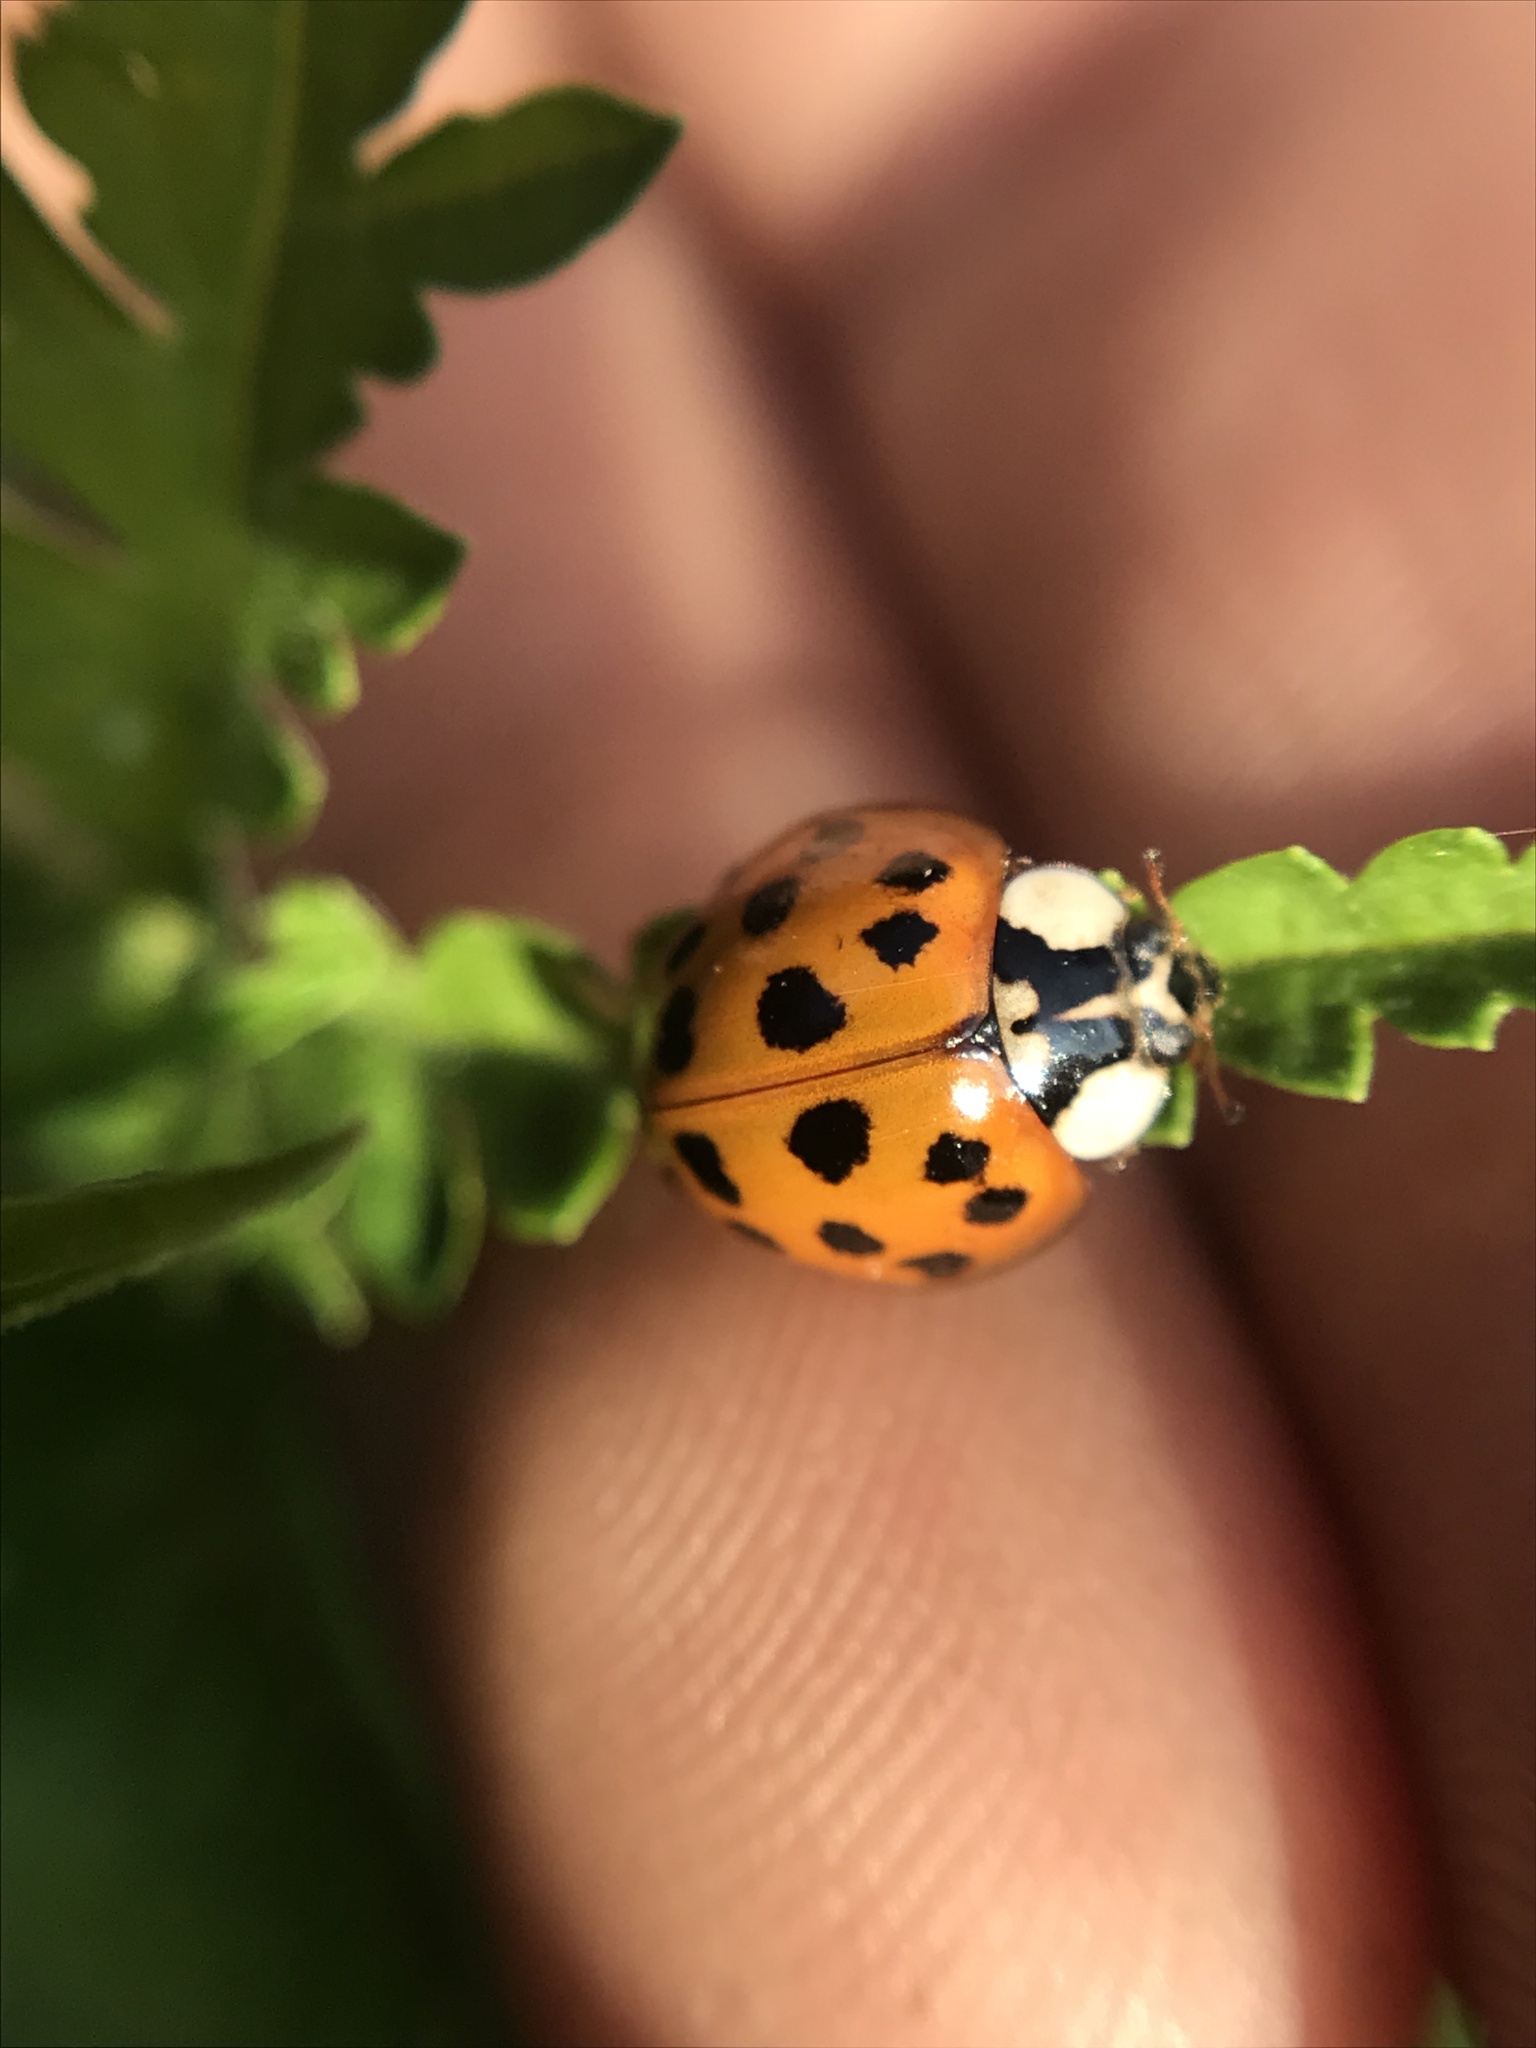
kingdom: Animalia
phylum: Arthropoda
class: Insecta
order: Coleoptera
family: Coccinellidae
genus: Harmonia
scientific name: Harmonia axyridis
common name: Harlequin ladybird
